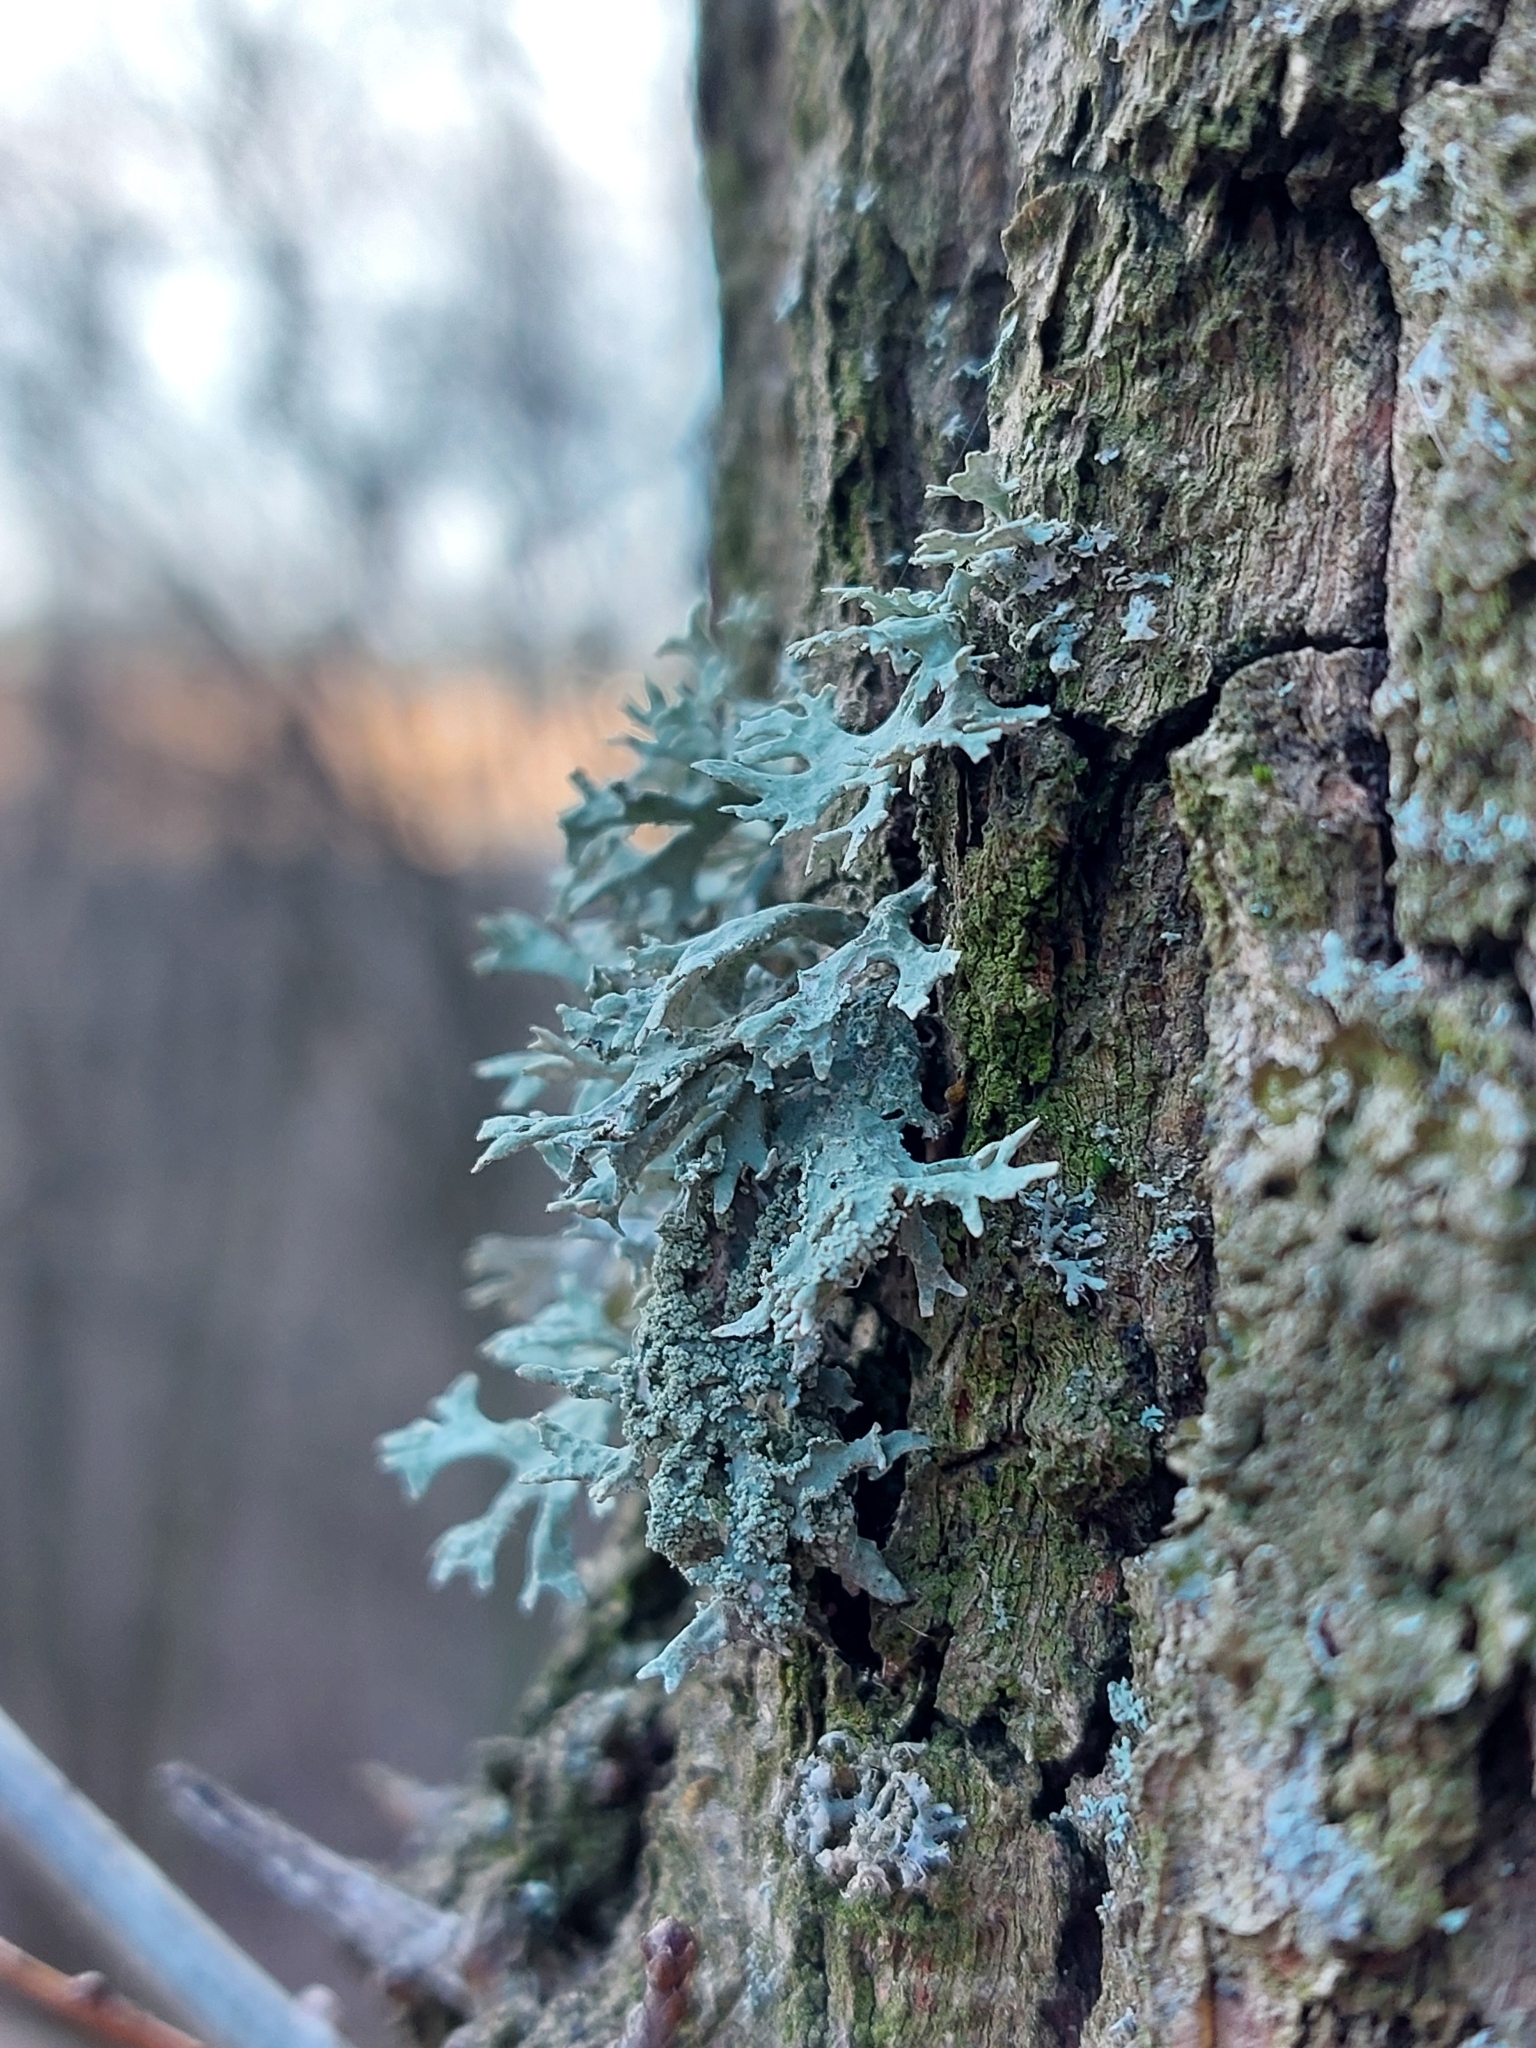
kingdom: Fungi
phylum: Ascomycota
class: Lecanoromycetes
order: Lecanorales
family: Parmeliaceae
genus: Evernia
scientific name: Evernia prunastri
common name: Oak moss
